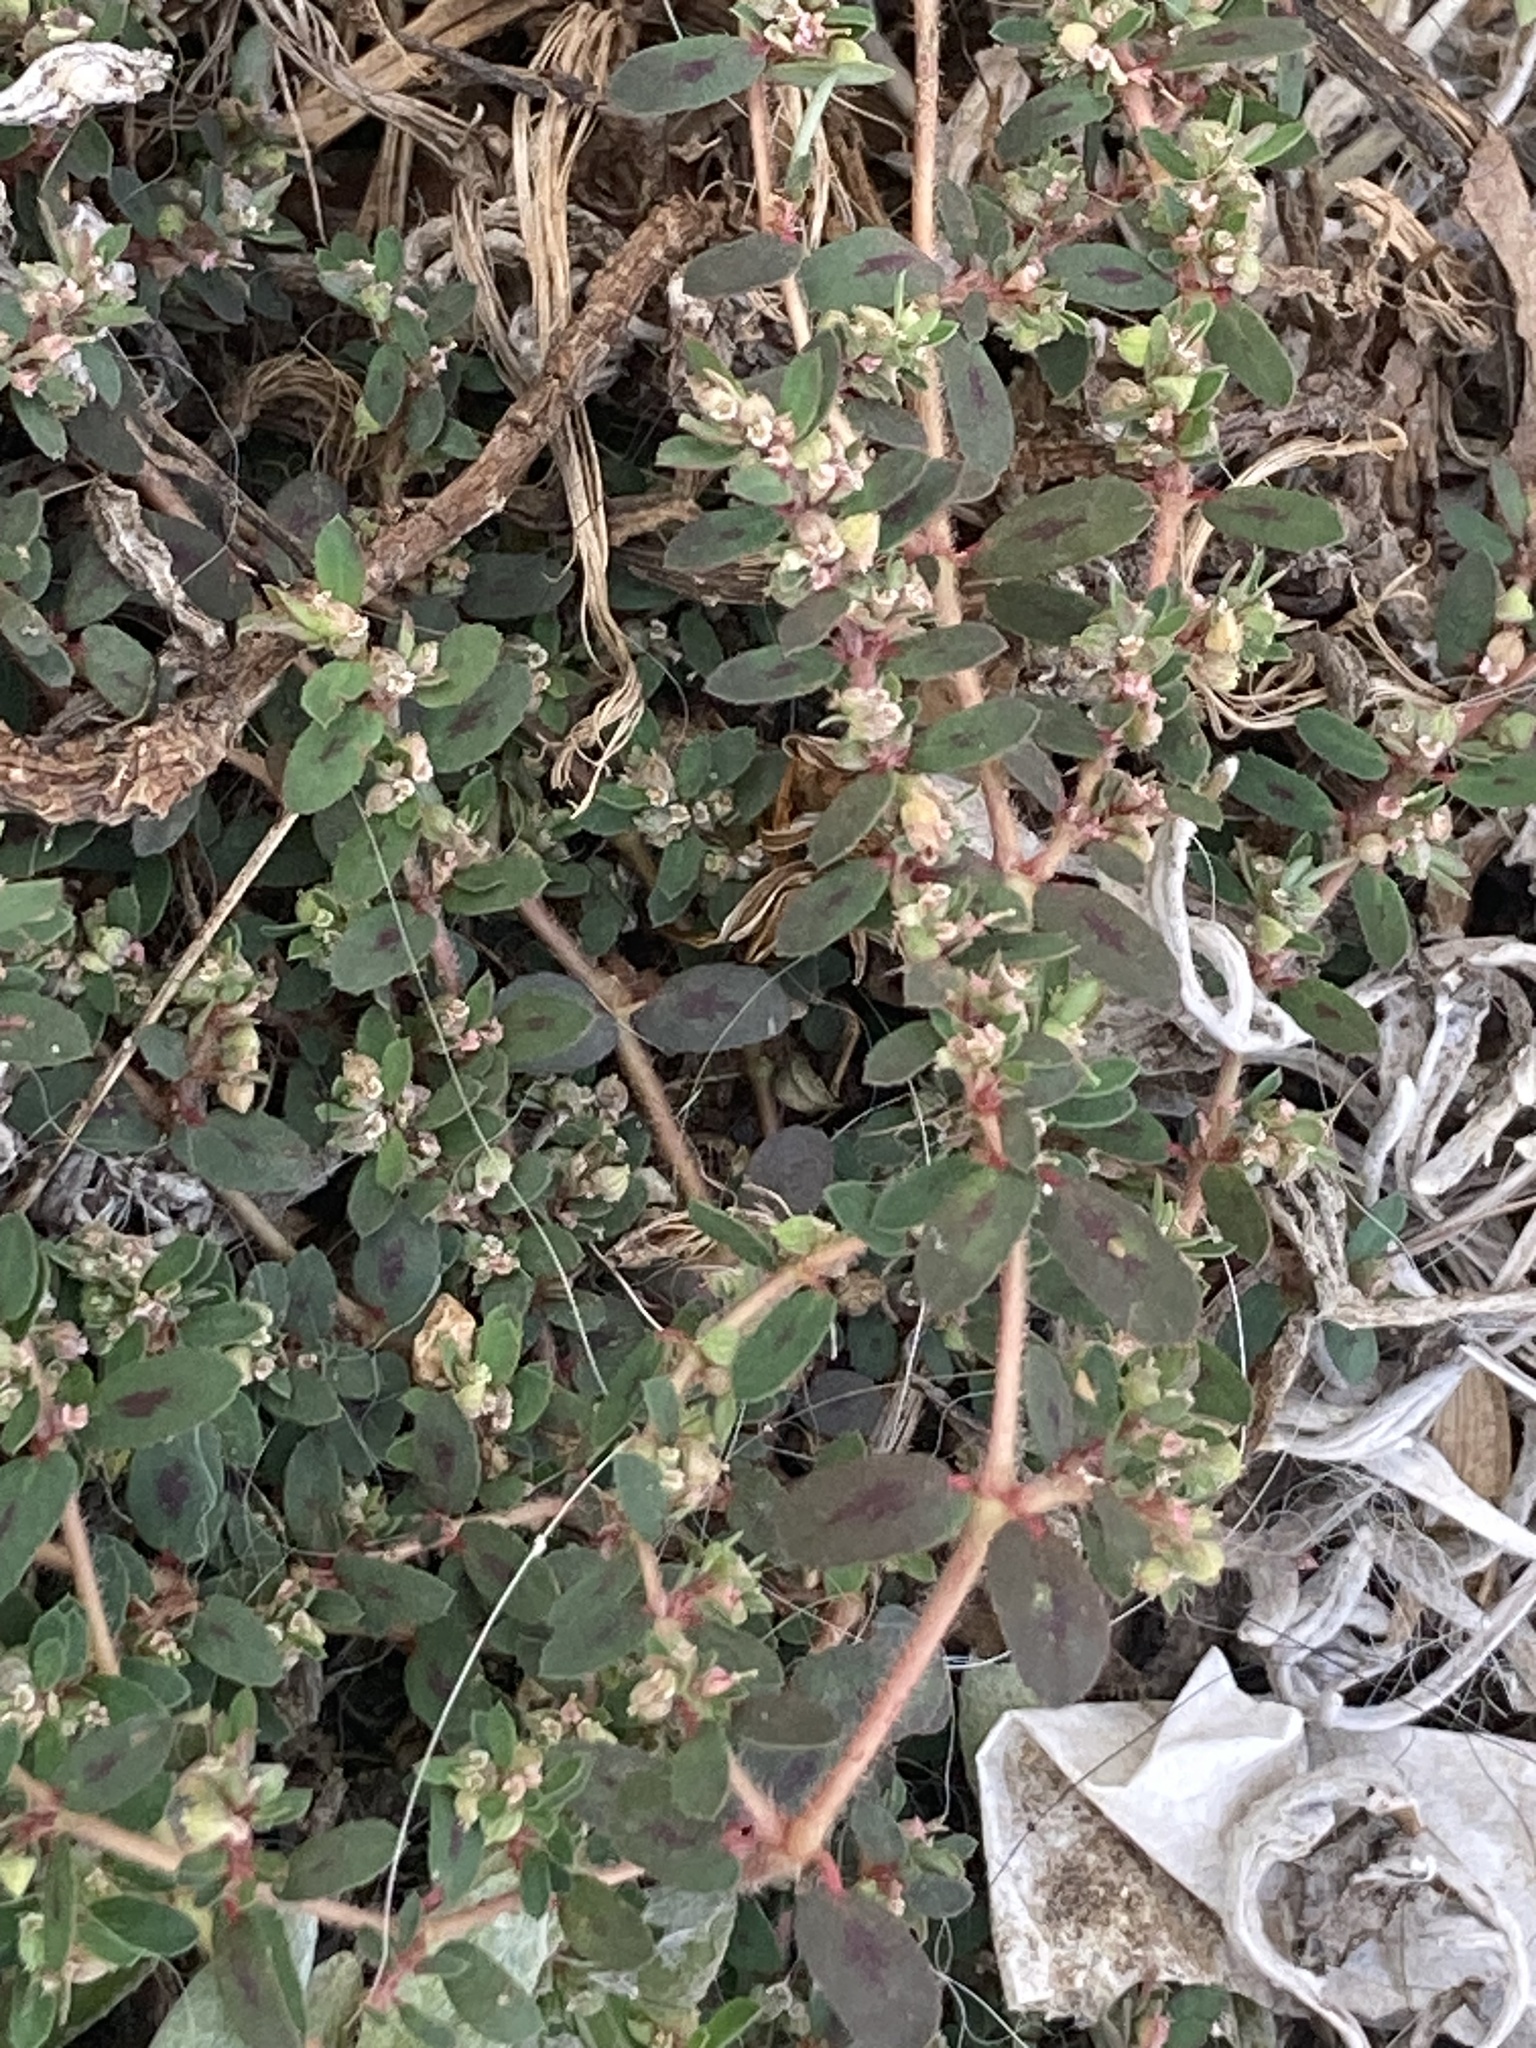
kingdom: Plantae
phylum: Tracheophyta
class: Magnoliopsida
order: Malpighiales
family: Euphorbiaceae
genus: Euphorbia
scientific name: Euphorbia maculata
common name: Spotted spurge
